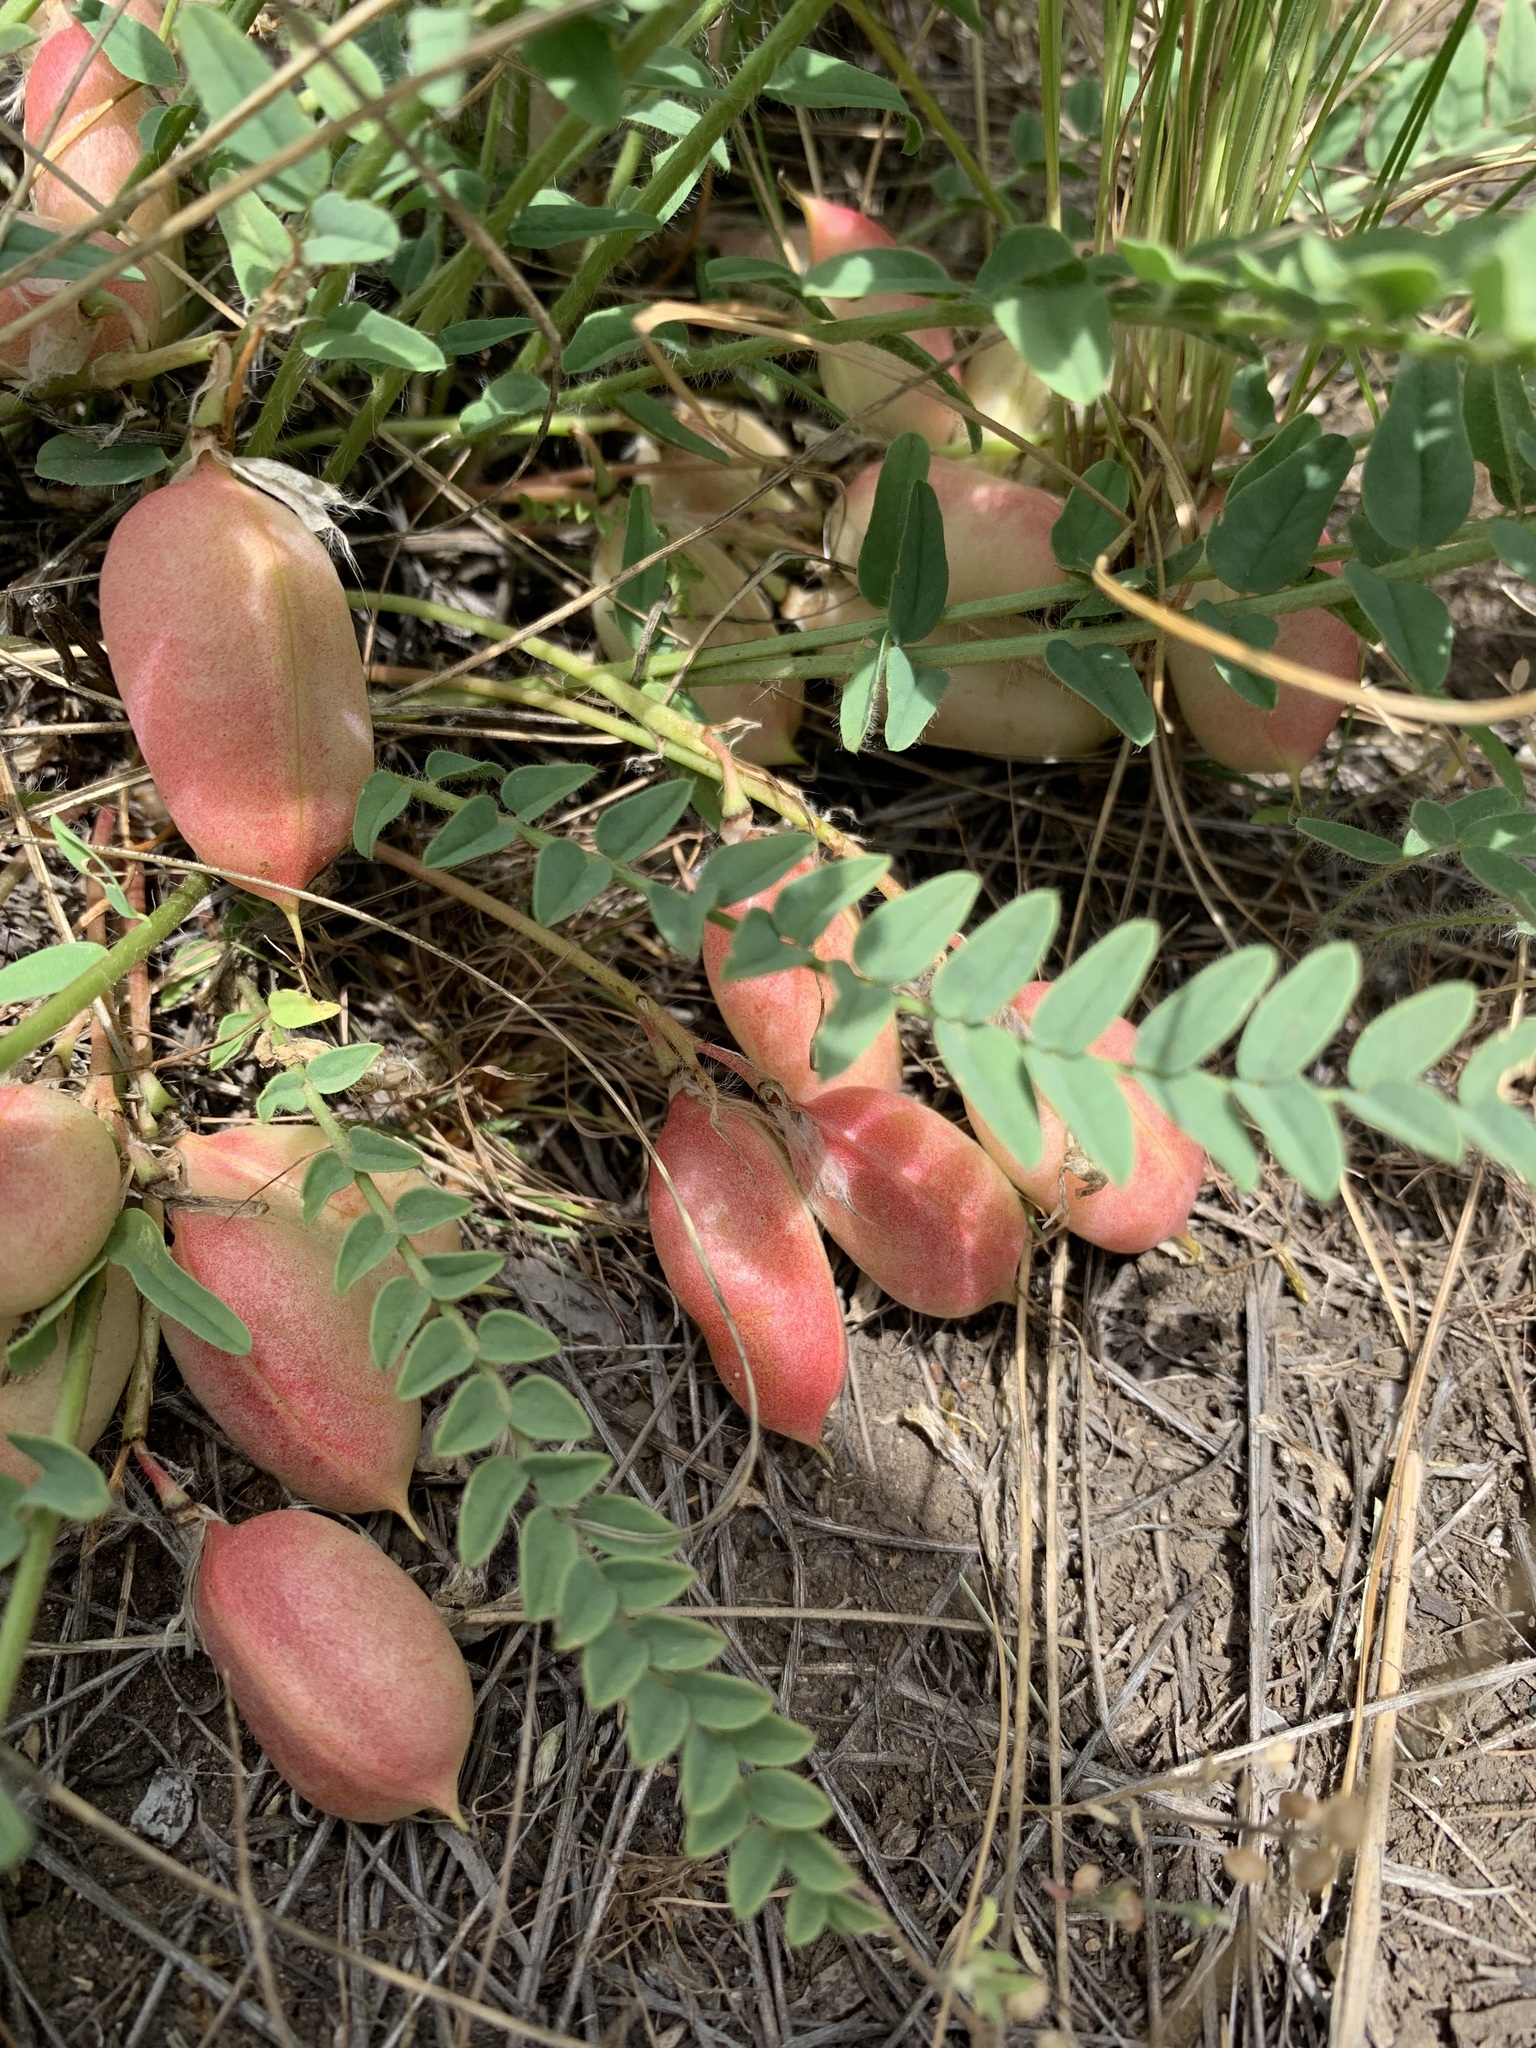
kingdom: Plantae
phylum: Tracheophyta
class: Magnoliopsida
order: Fabales
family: Fabaceae
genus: Astragalus
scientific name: Astragalus wolgensis
